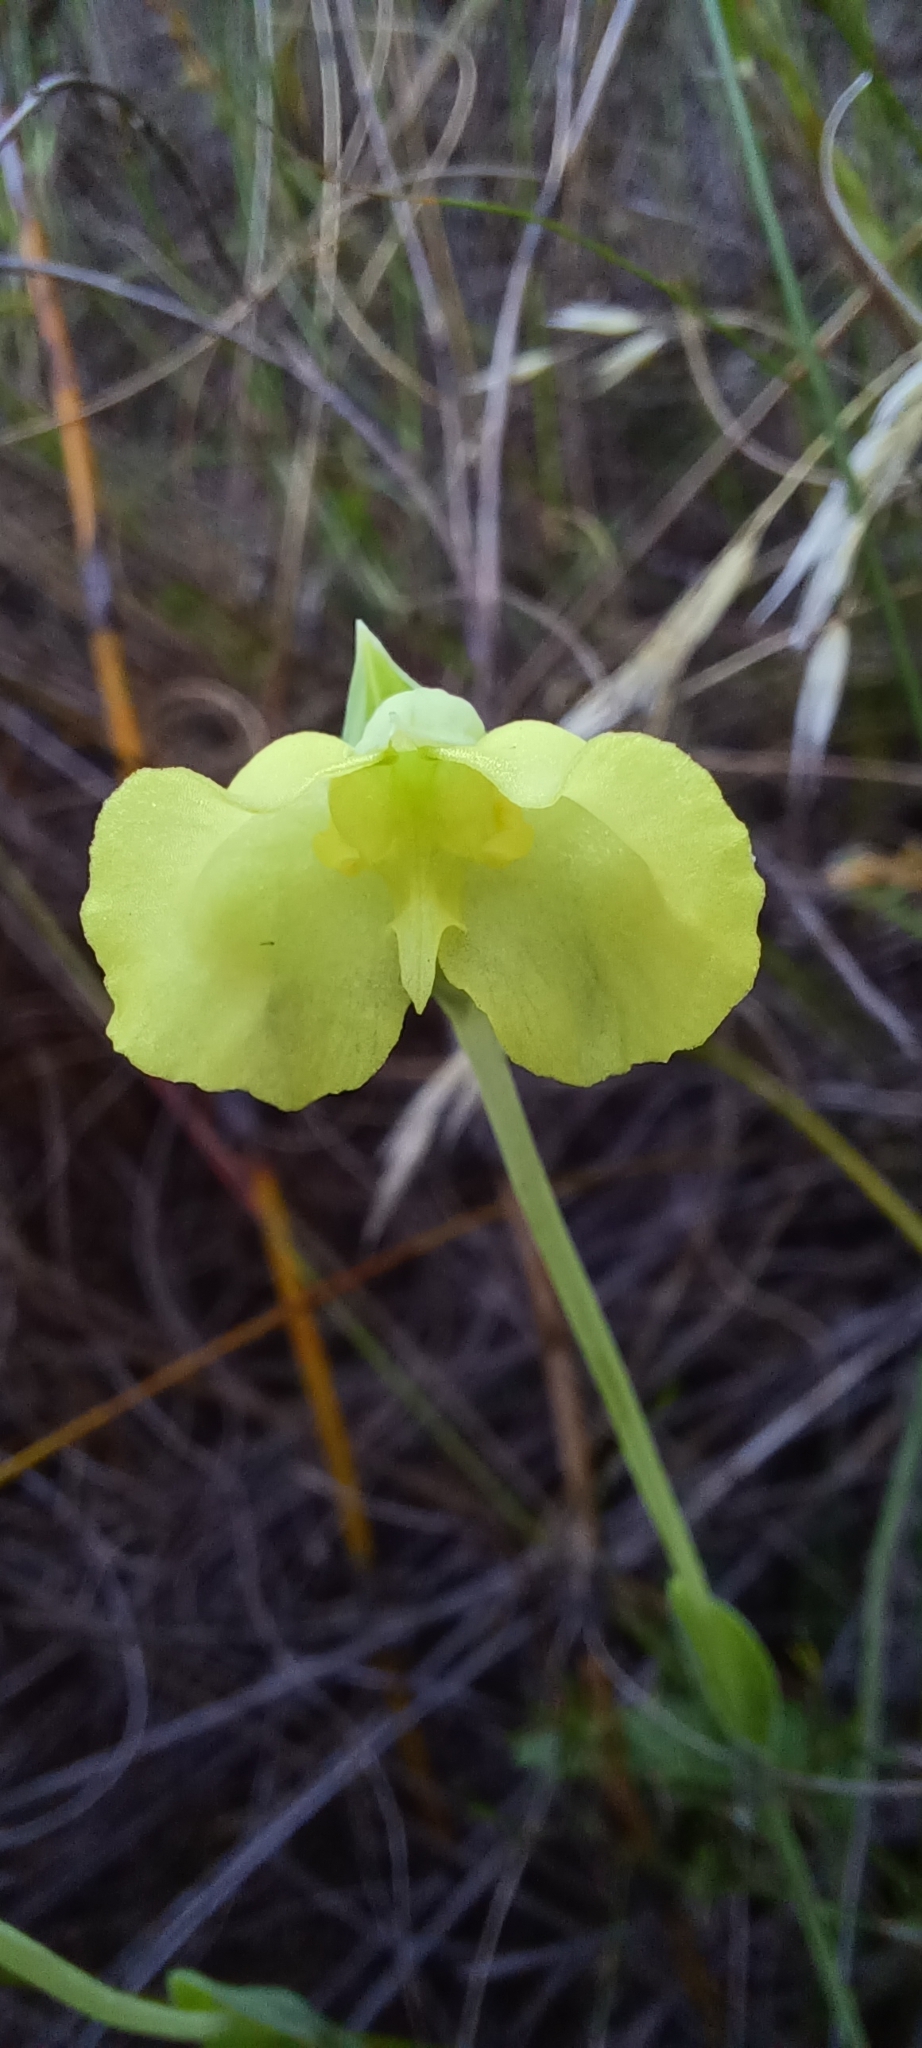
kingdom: Plantae
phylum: Tracheophyta
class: Liliopsida
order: Asparagales
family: Orchidaceae
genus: Pterygodium
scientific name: Pterygodium platypetalum
